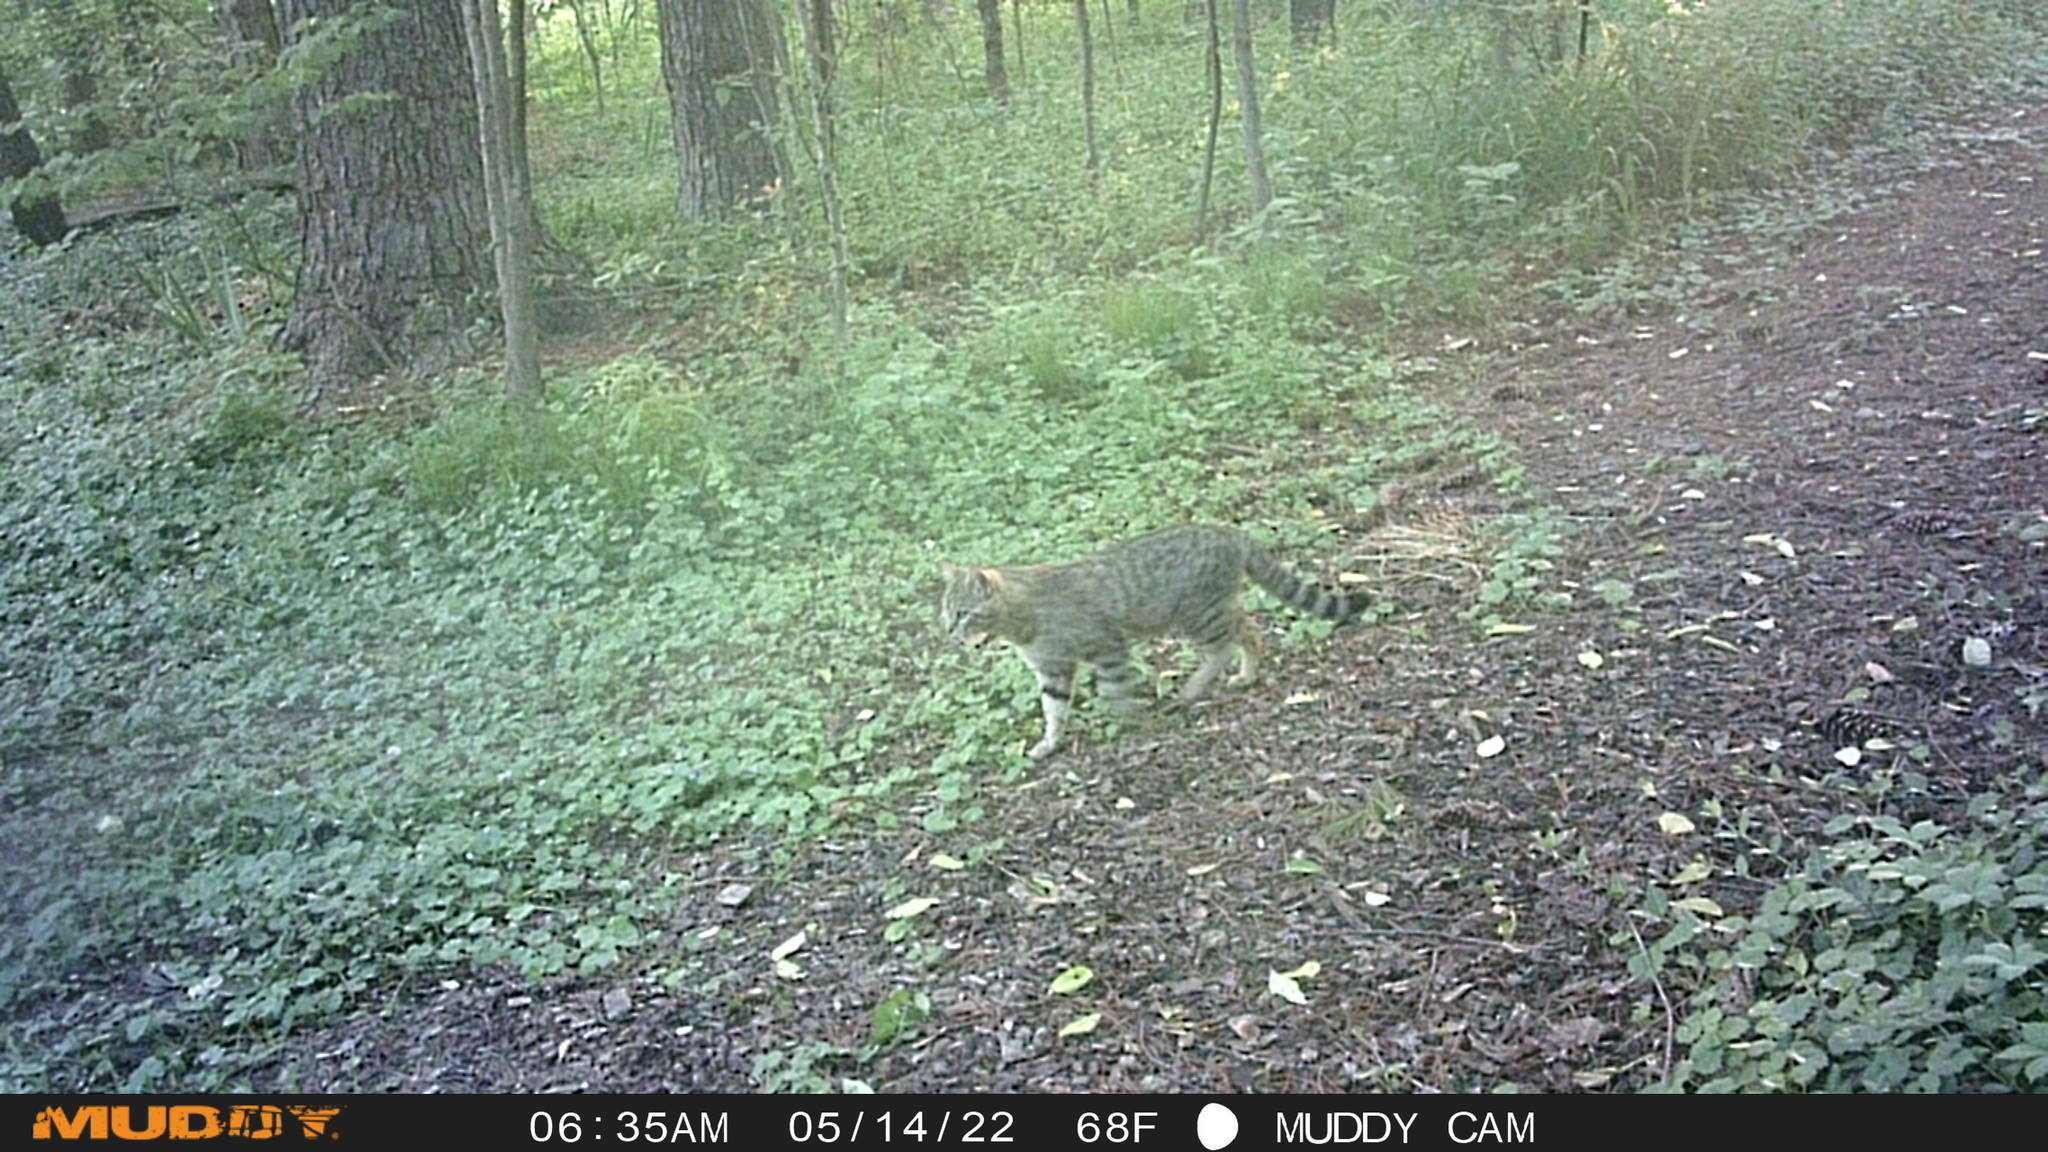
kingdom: Animalia
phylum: Chordata
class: Mammalia
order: Carnivora
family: Felidae
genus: Felis
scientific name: Felis catus
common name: Domestic cat
